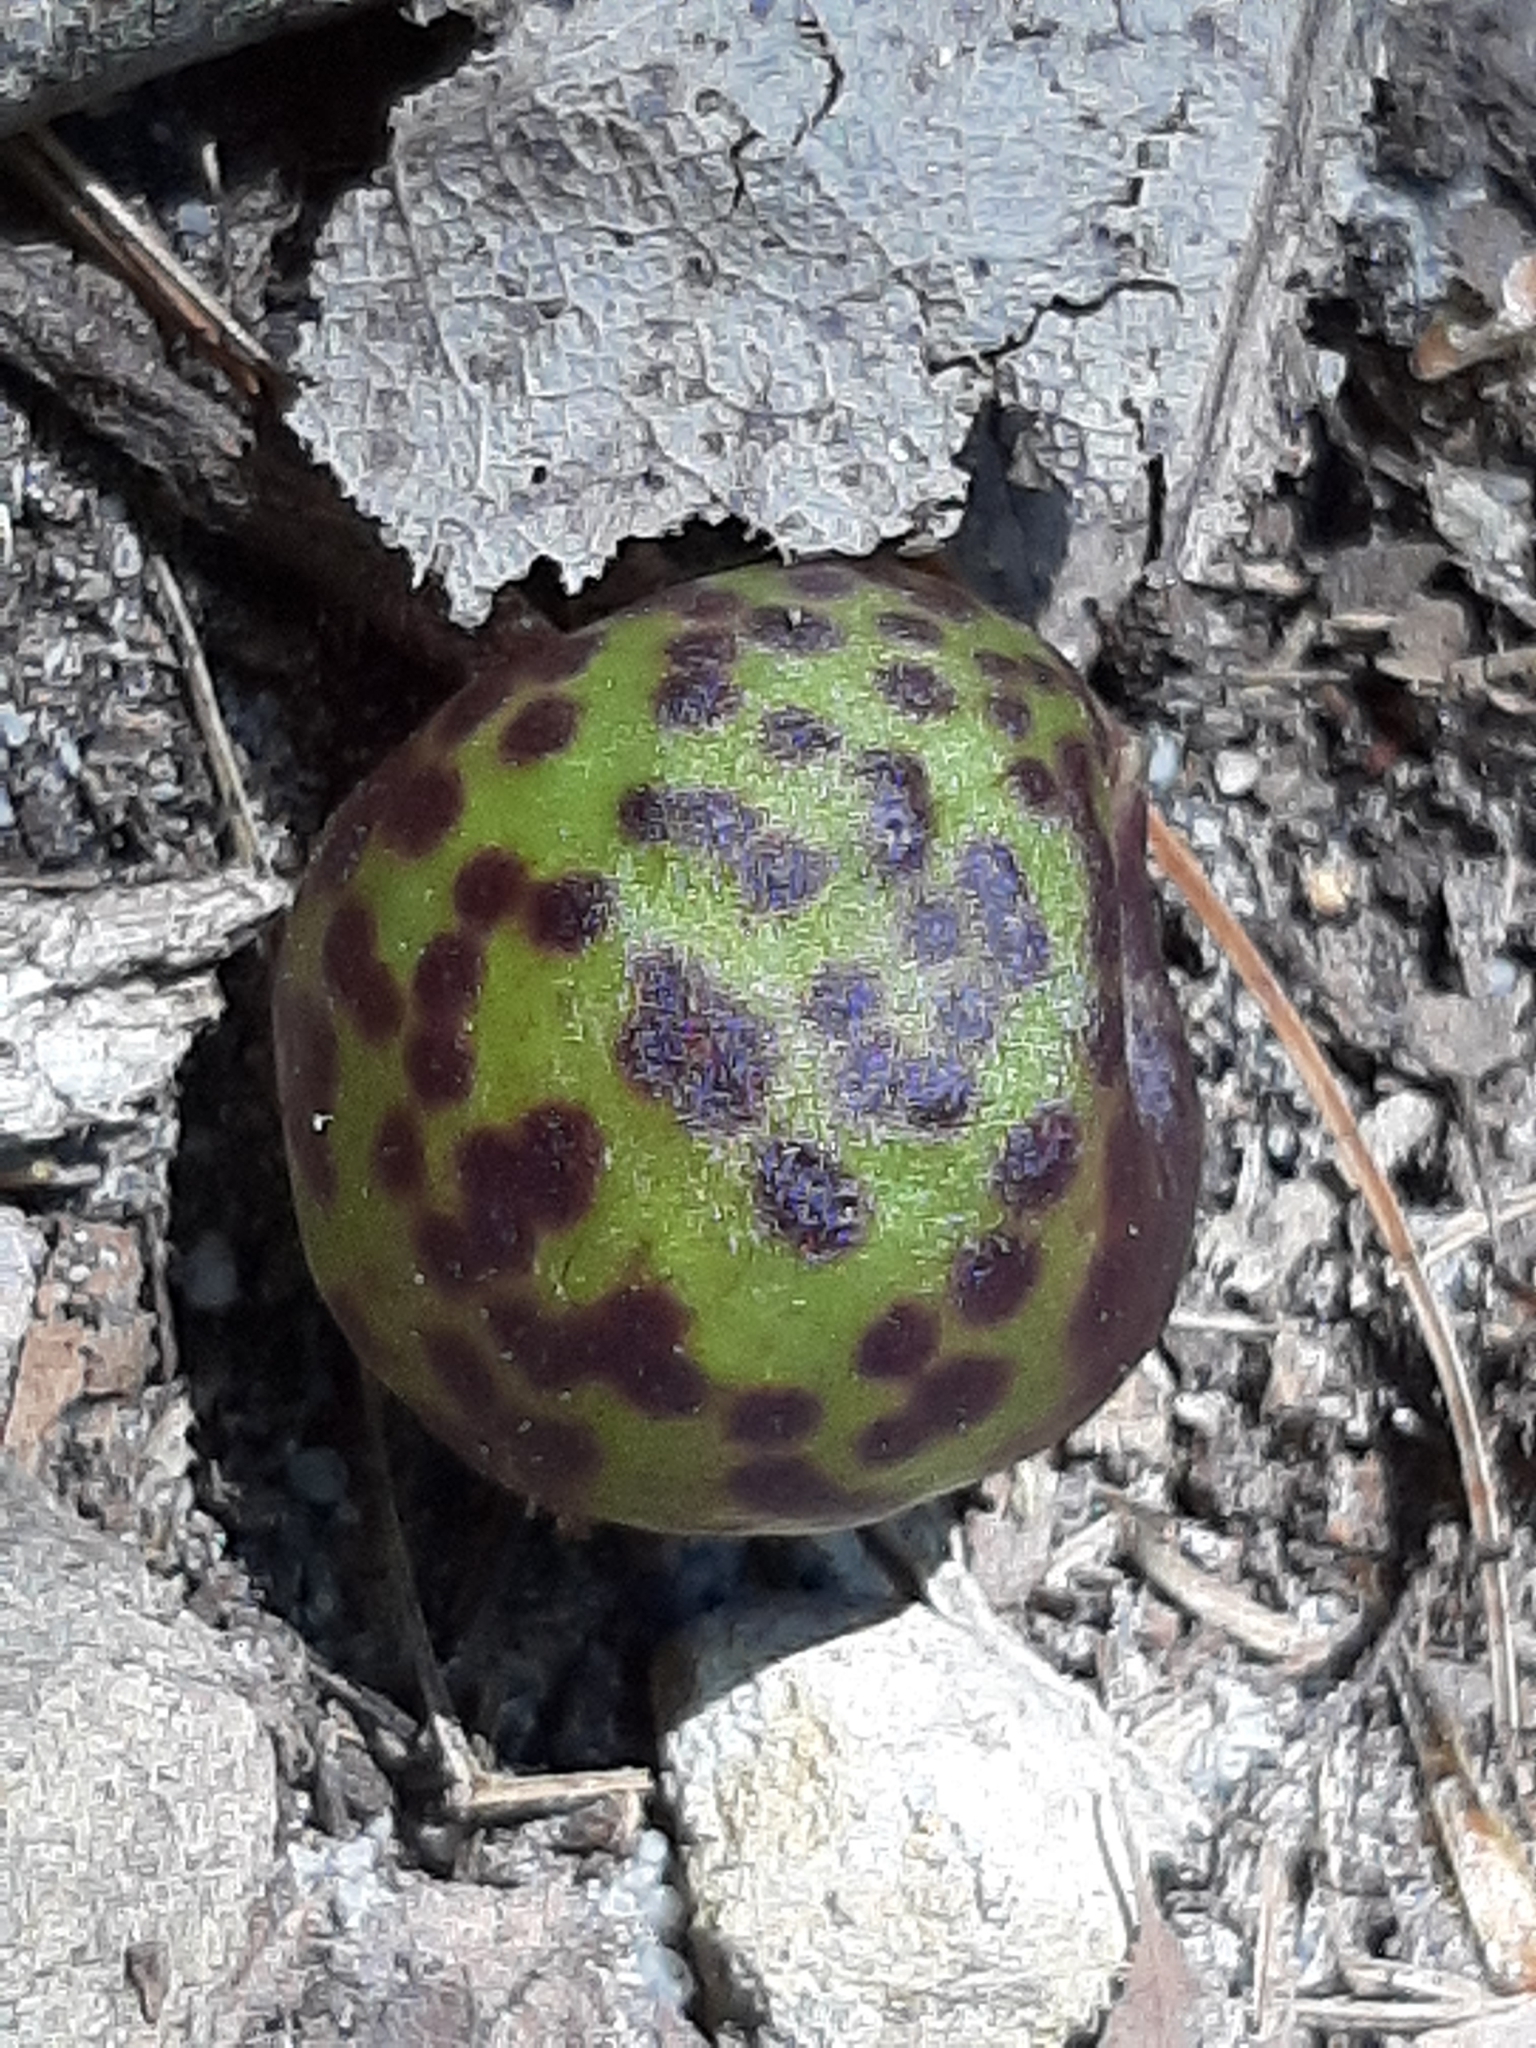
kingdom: Animalia
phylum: Arthropoda
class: Insecta
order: Hymenoptera
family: Cynipidae
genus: Amphibolips
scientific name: Amphibolips
